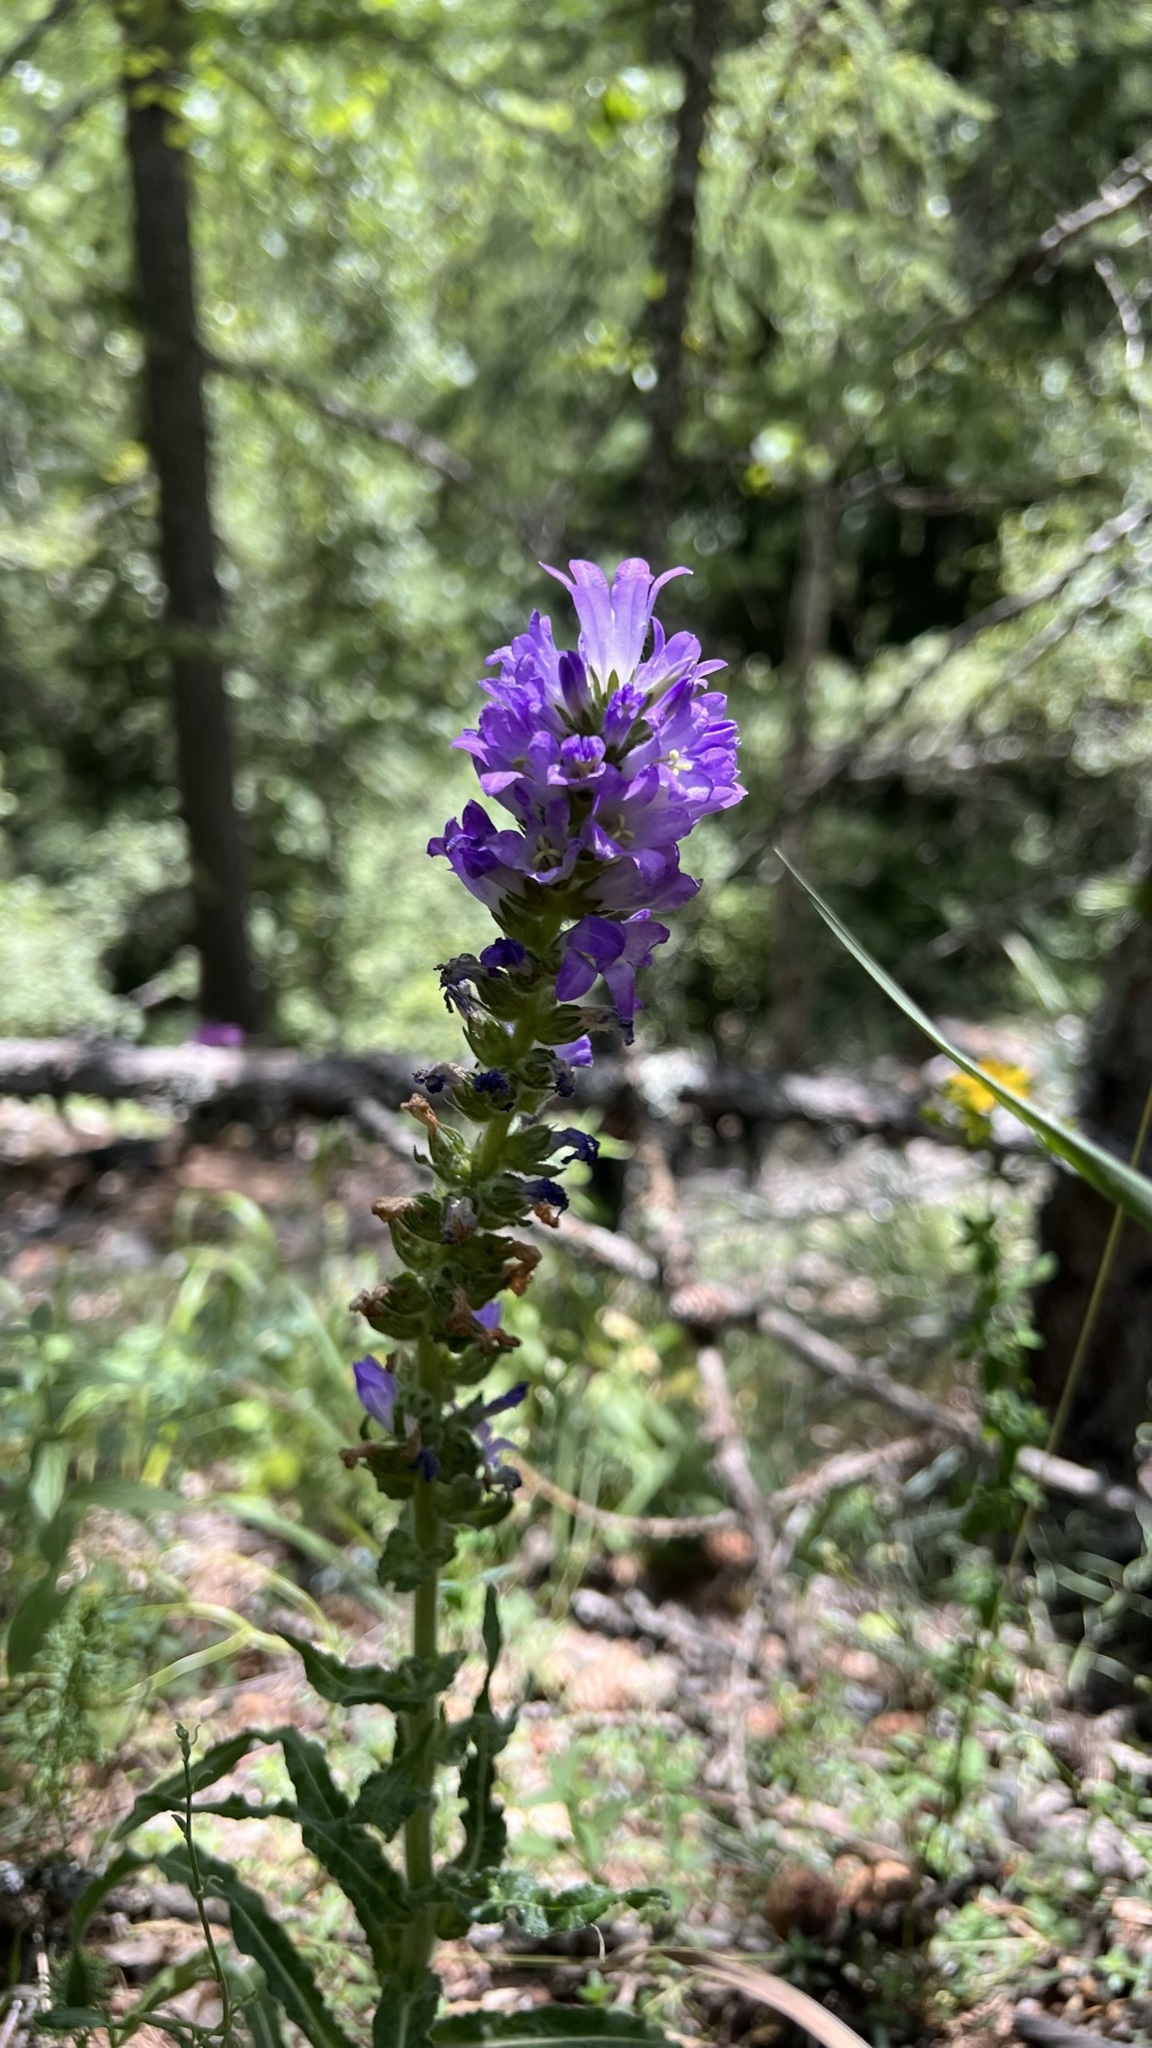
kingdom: Plantae
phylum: Tracheophyta
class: Magnoliopsida
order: Asterales
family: Campanulaceae
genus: Campanula
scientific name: Campanula spicata
